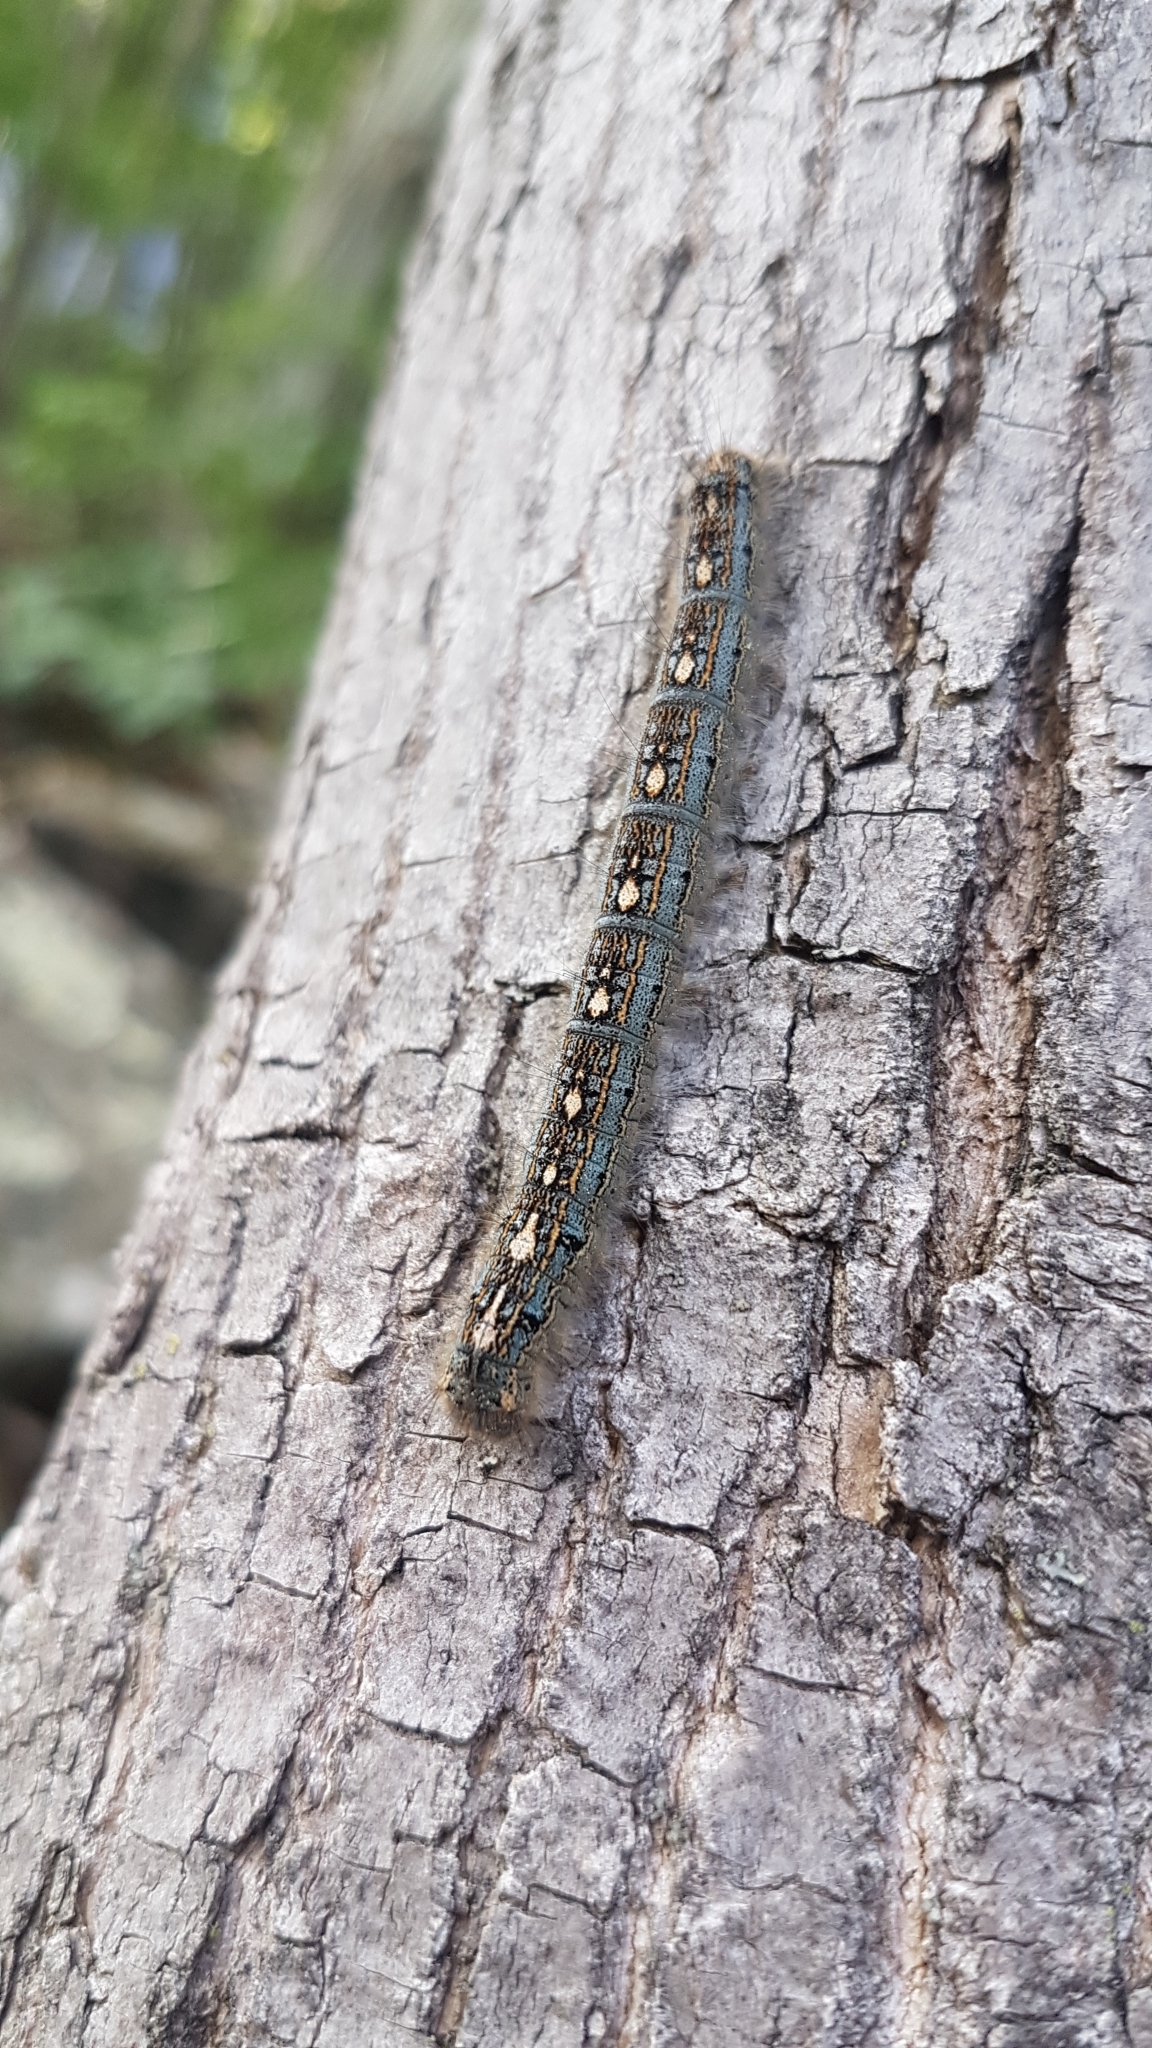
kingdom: Animalia
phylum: Arthropoda
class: Insecta
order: Lepidoptera
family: Lasiocampidae
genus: Malacosoma
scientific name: Malacosoma disstria
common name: Forest tent caterpillar
